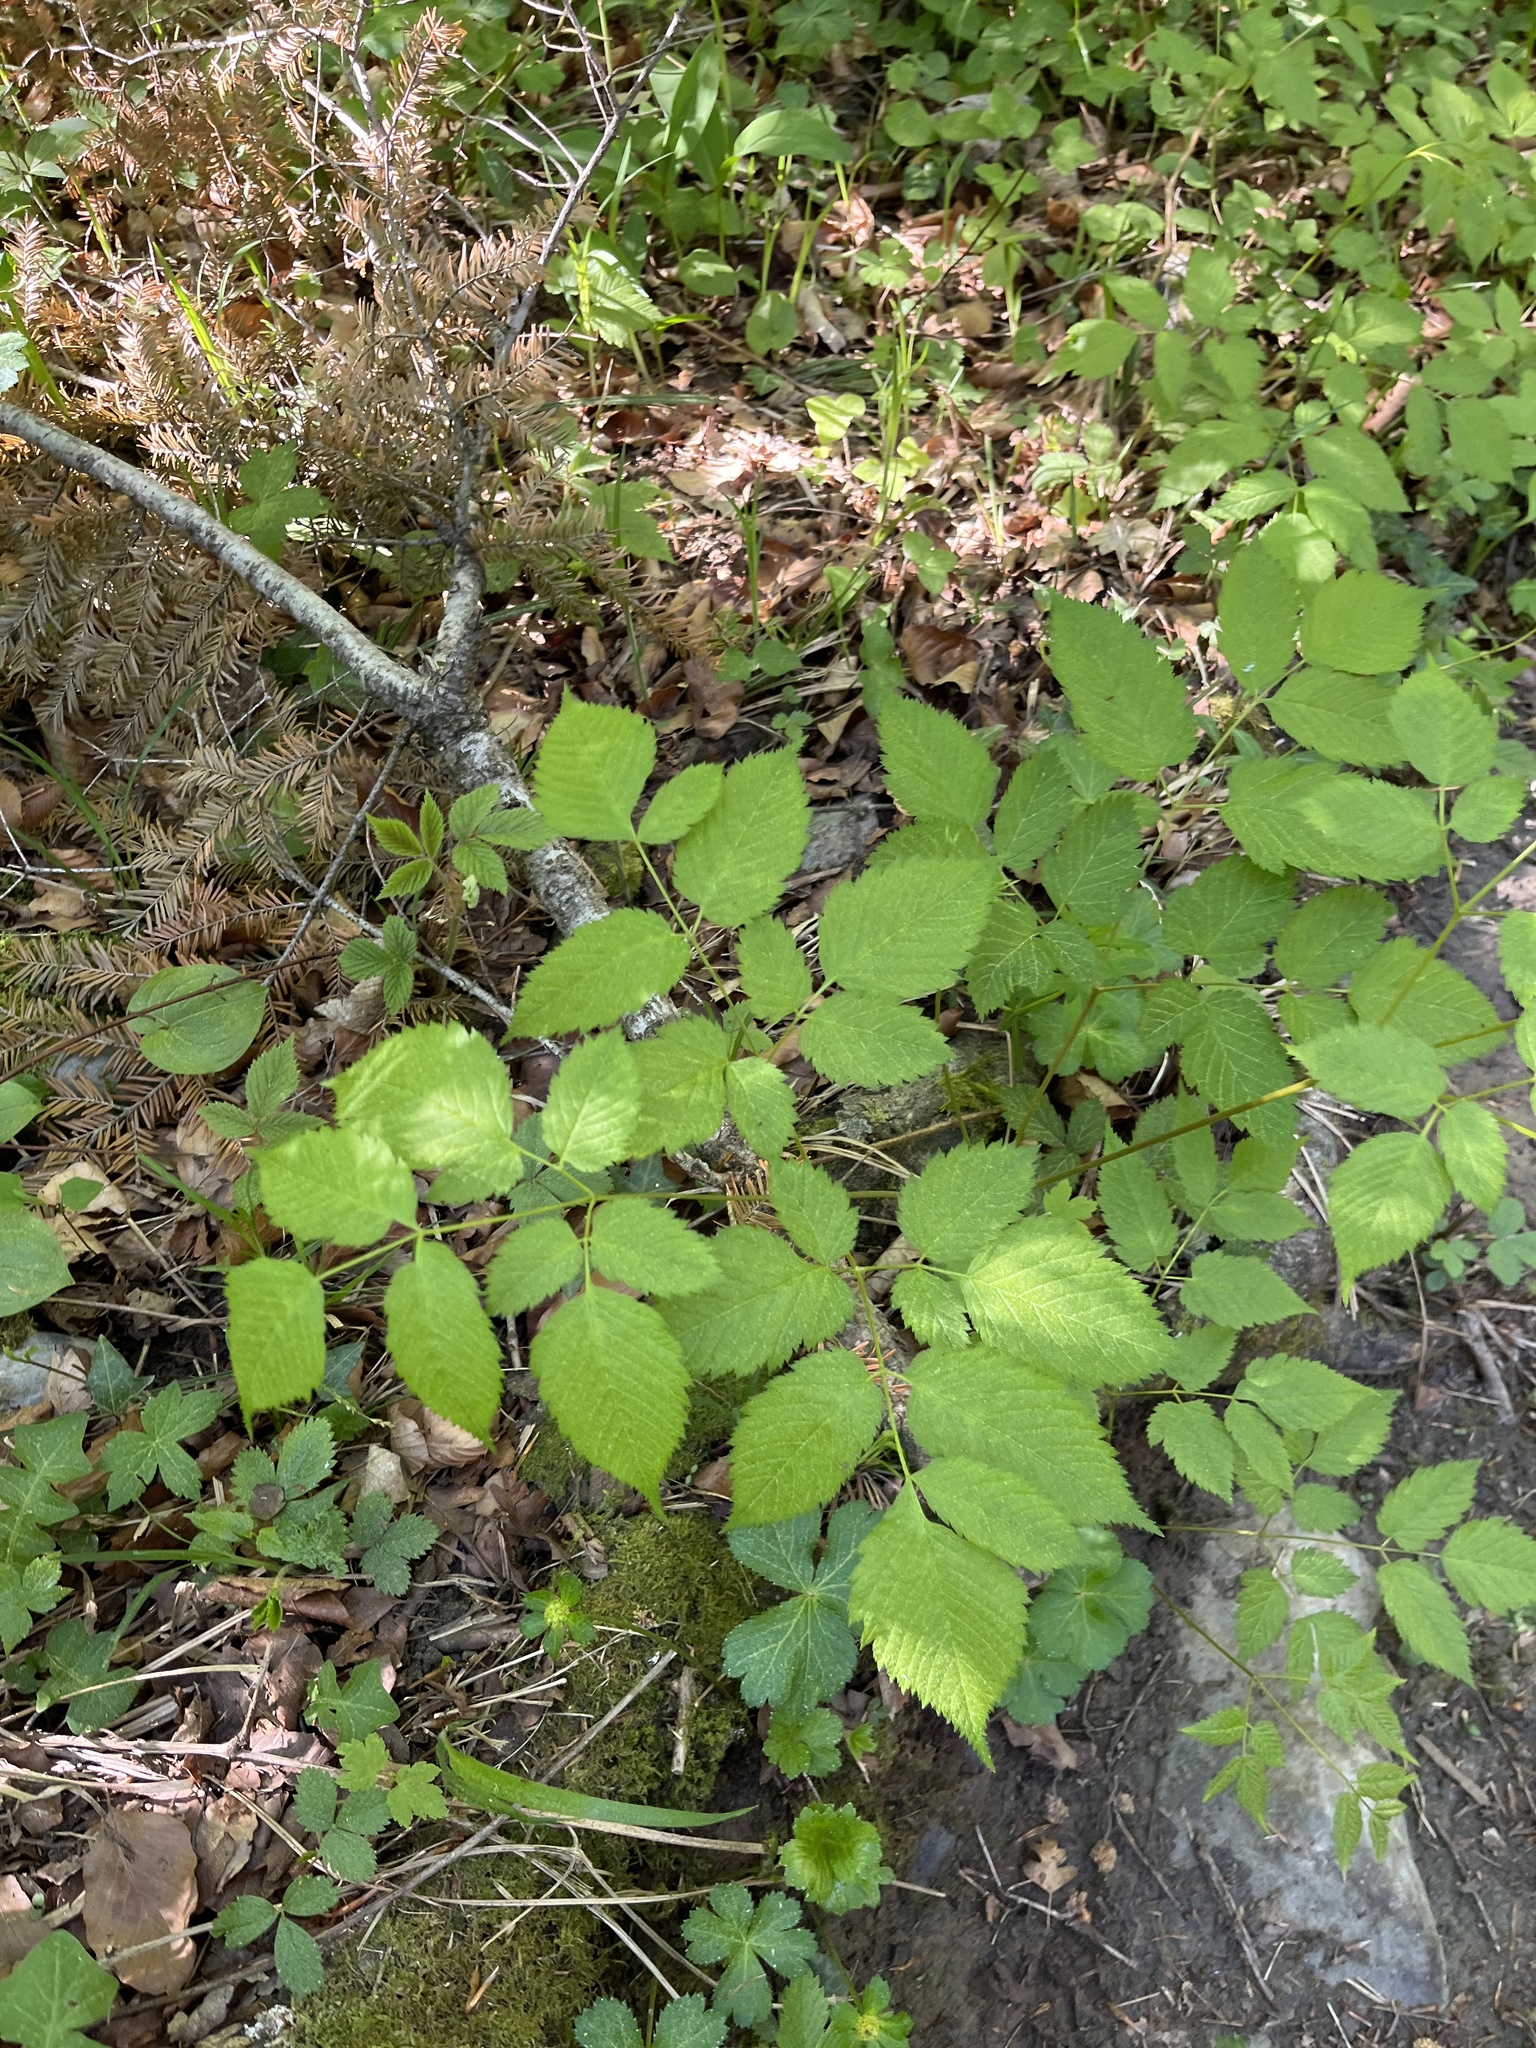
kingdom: Plantae
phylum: Tracheophyta
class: Magnoliopsida
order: Rosales
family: Rosaceae
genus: Aruncus
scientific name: Aruncus dioicus
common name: Buck's-beard
